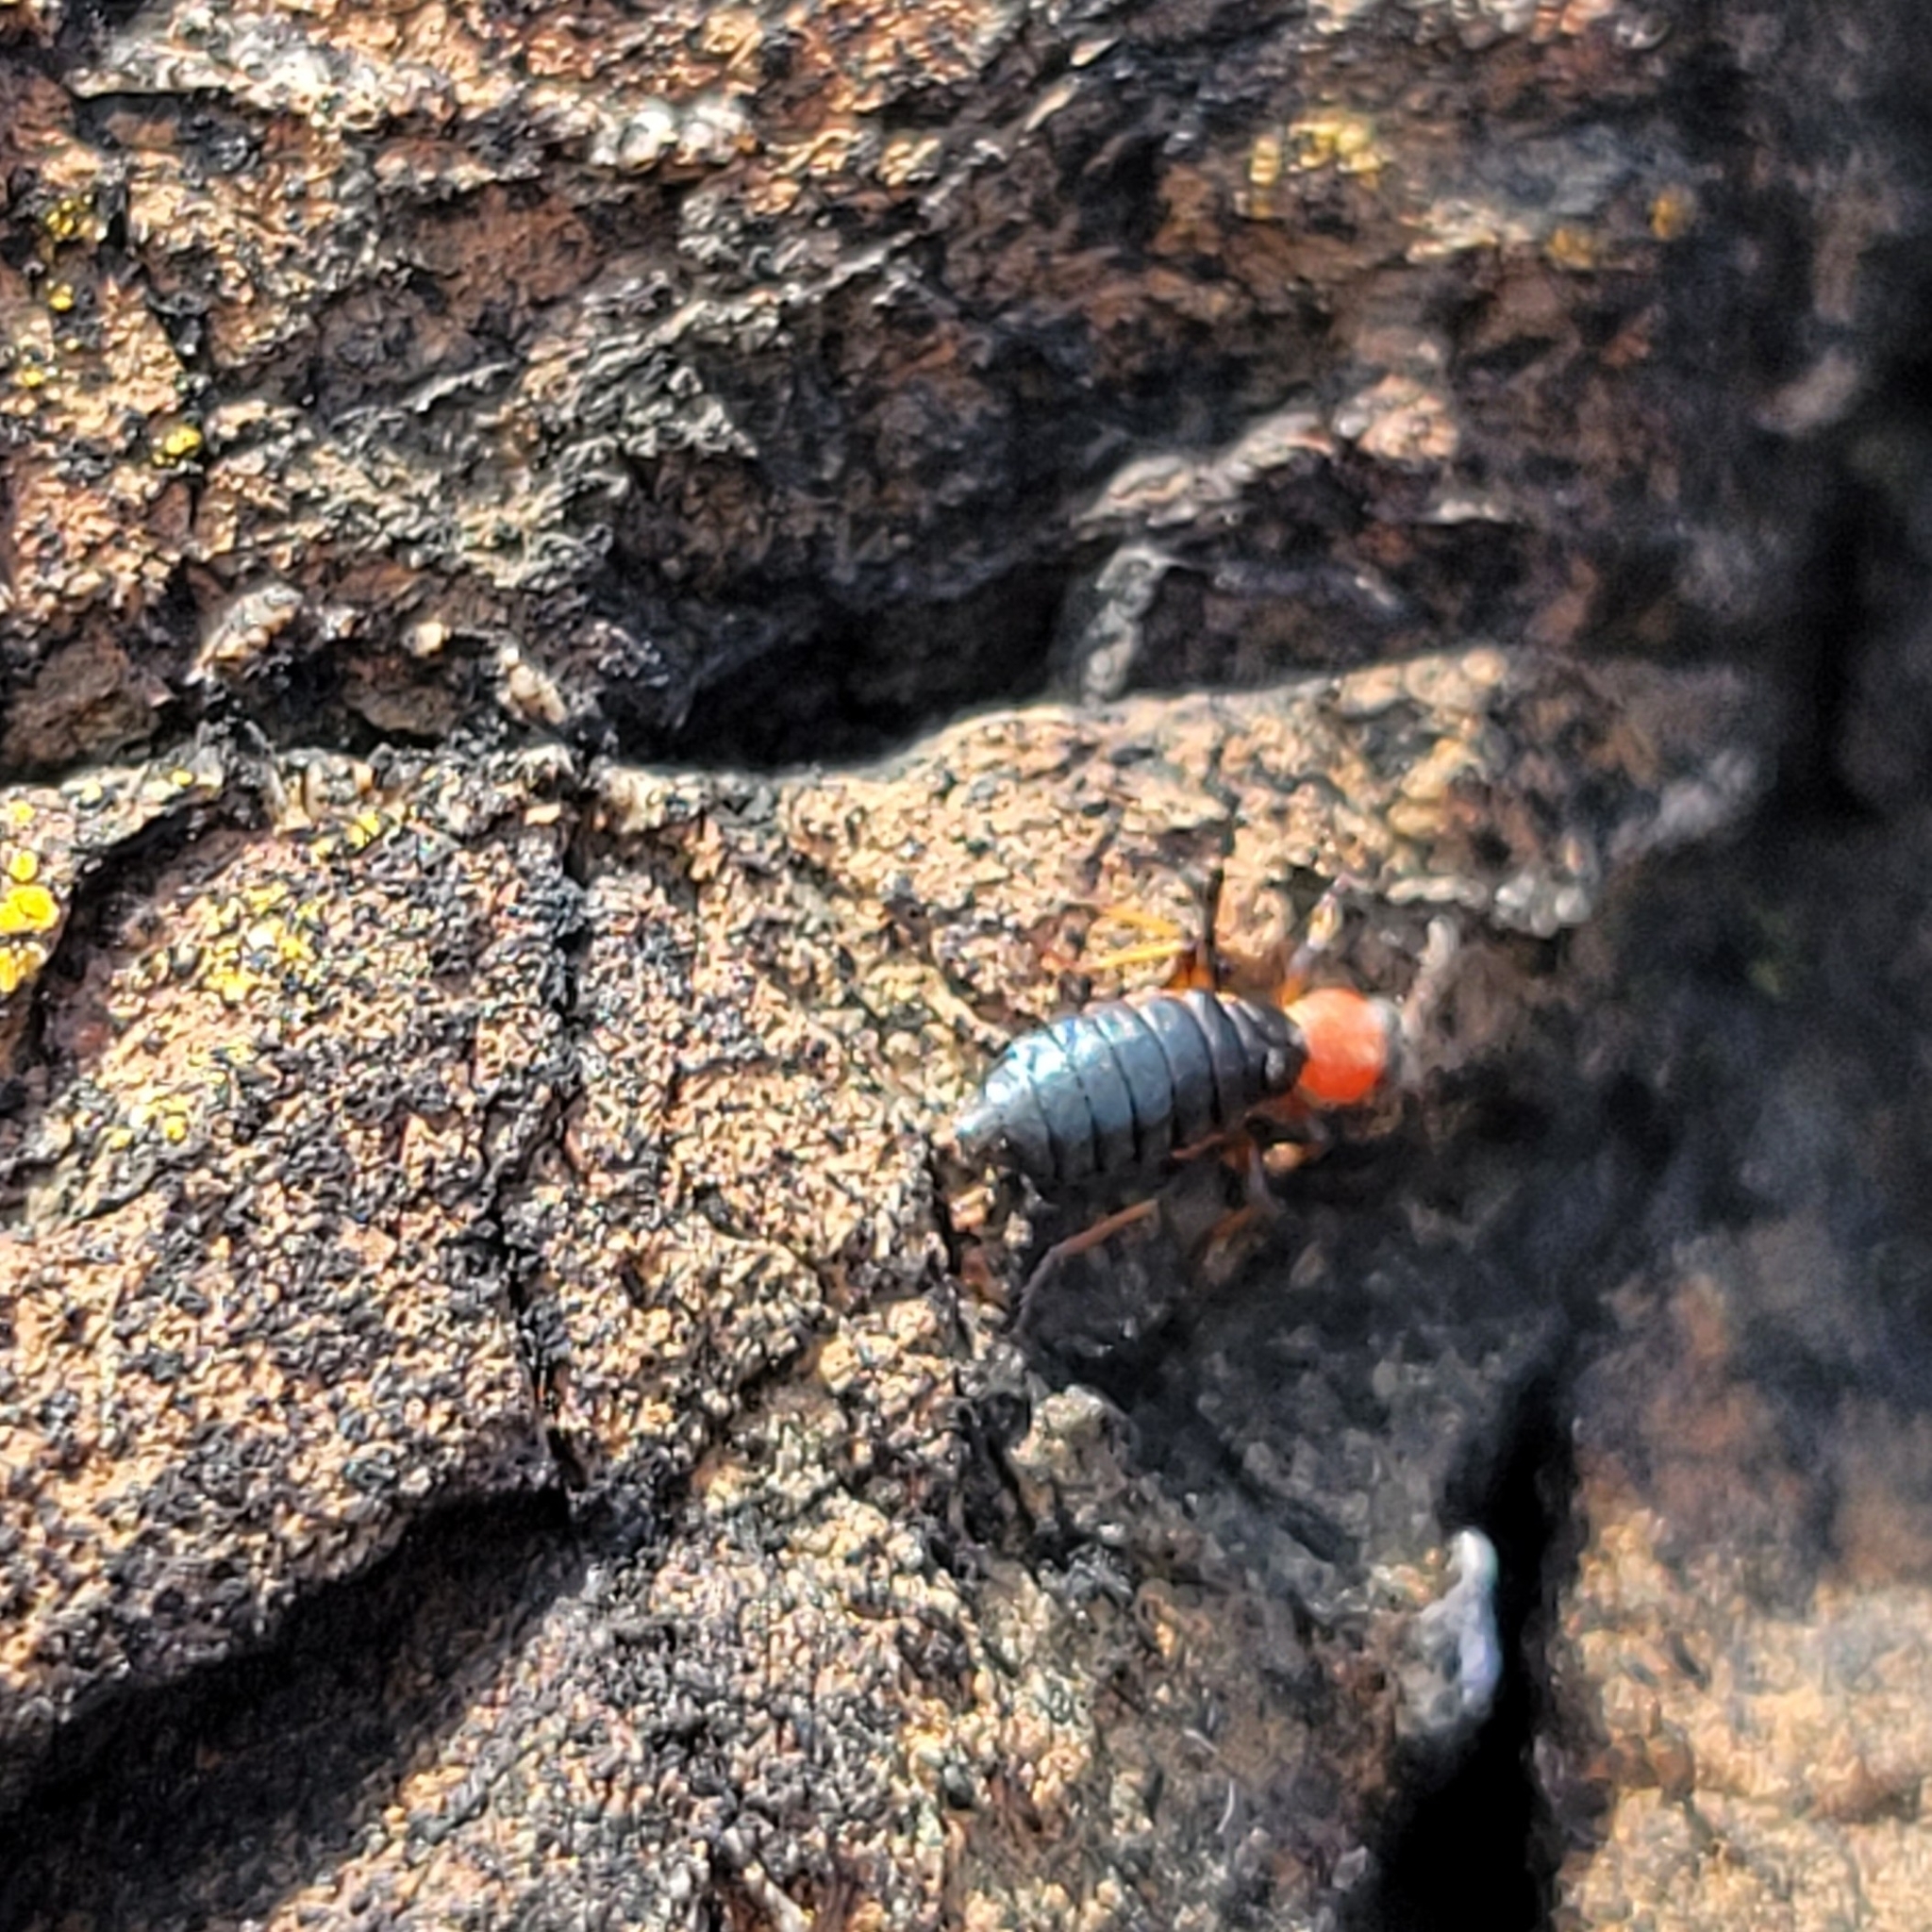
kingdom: Animalia
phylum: Arthropoda
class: Insecta
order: Coleoptera
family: Melyridae
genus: Endeodes
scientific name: Endeodes collaris
